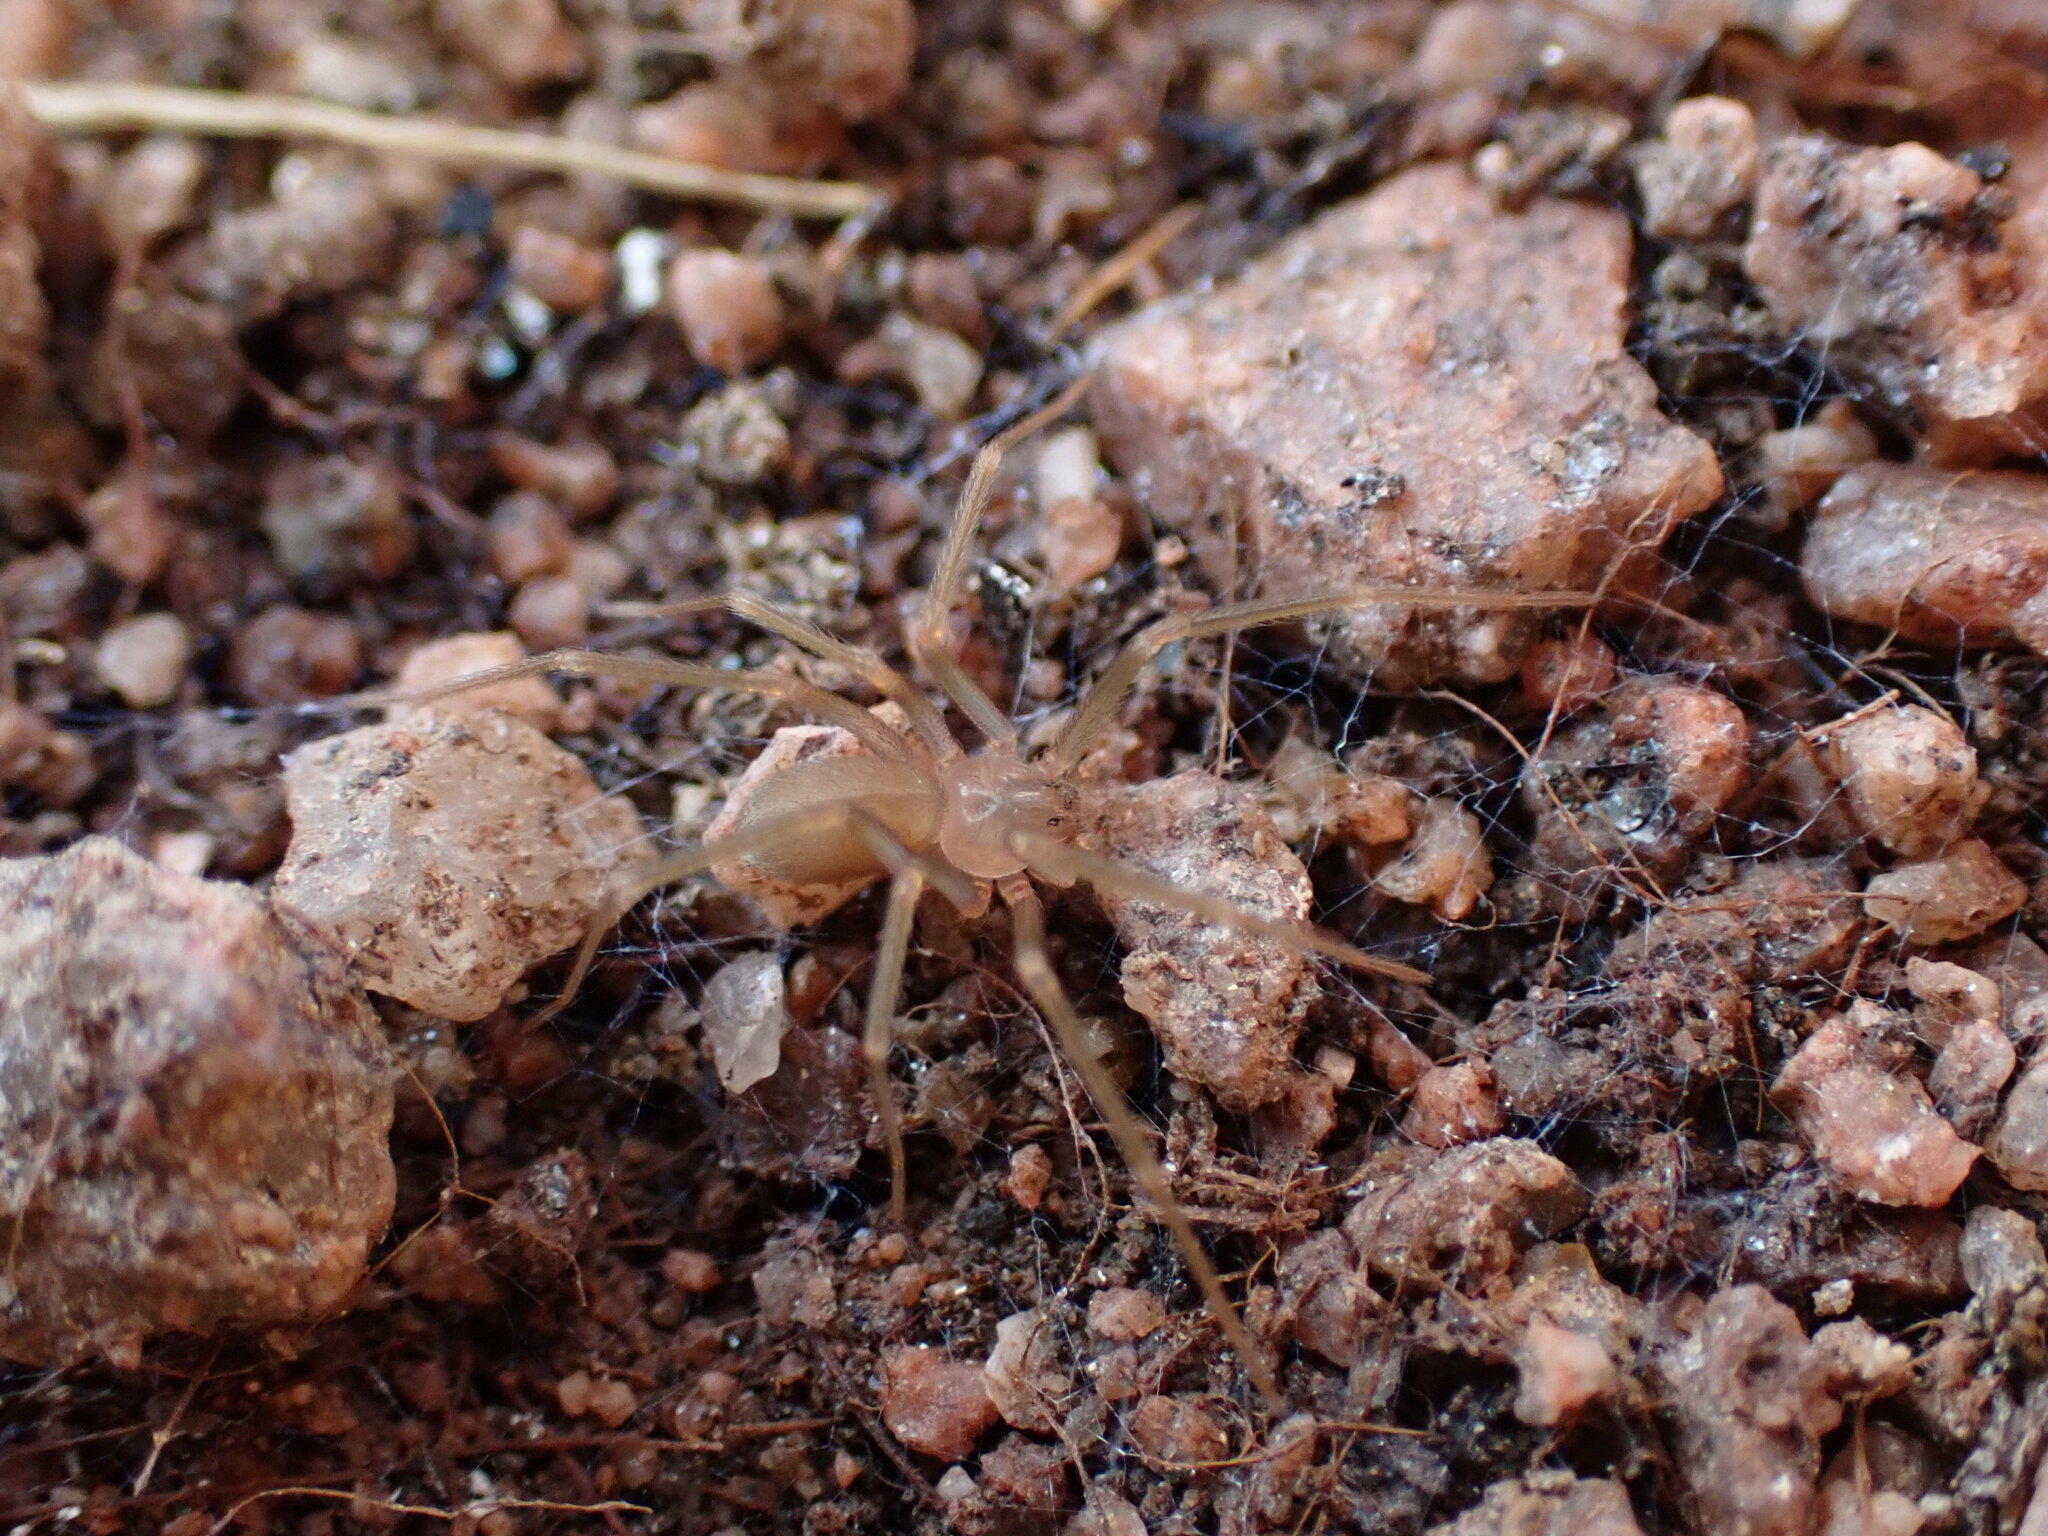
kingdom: Animalia
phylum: Arthropoda
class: Arachnida
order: Araneae
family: Sicariidae
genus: Loxosceles
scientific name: Loxosceles rufescens
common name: Mediterranean recluse spider
